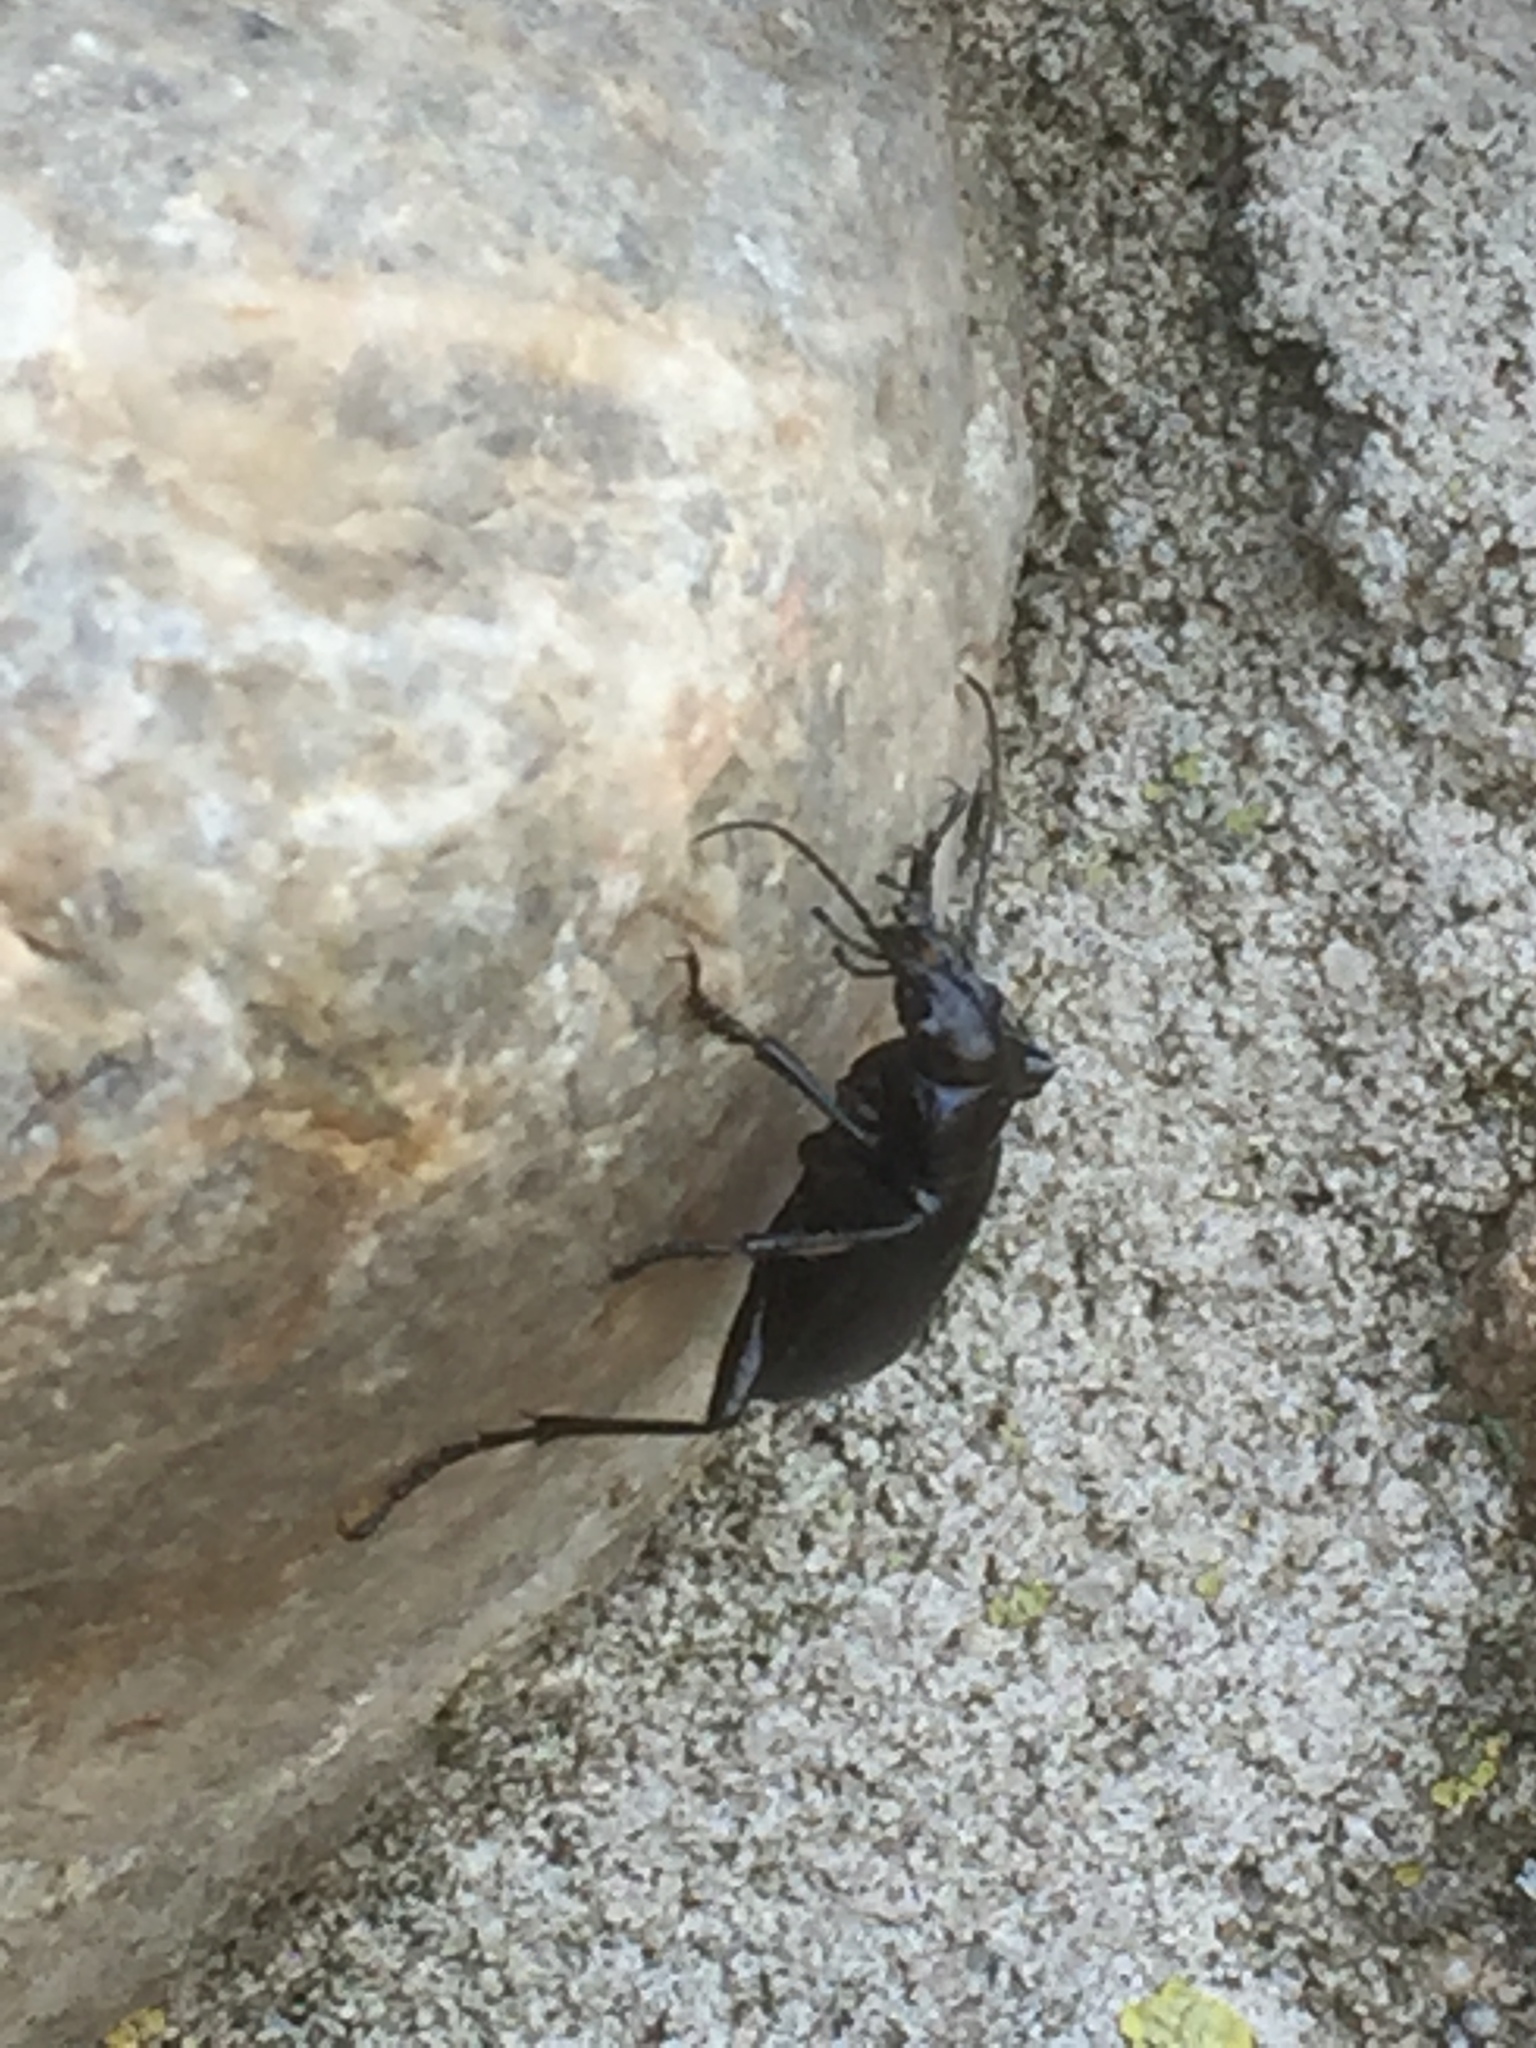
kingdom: Animalia
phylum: Arthropoda
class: Insecta
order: Coleoptera
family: Carabidae
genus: Calosoma
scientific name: Calosoma inquisitor
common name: Caterpillar-hunter
